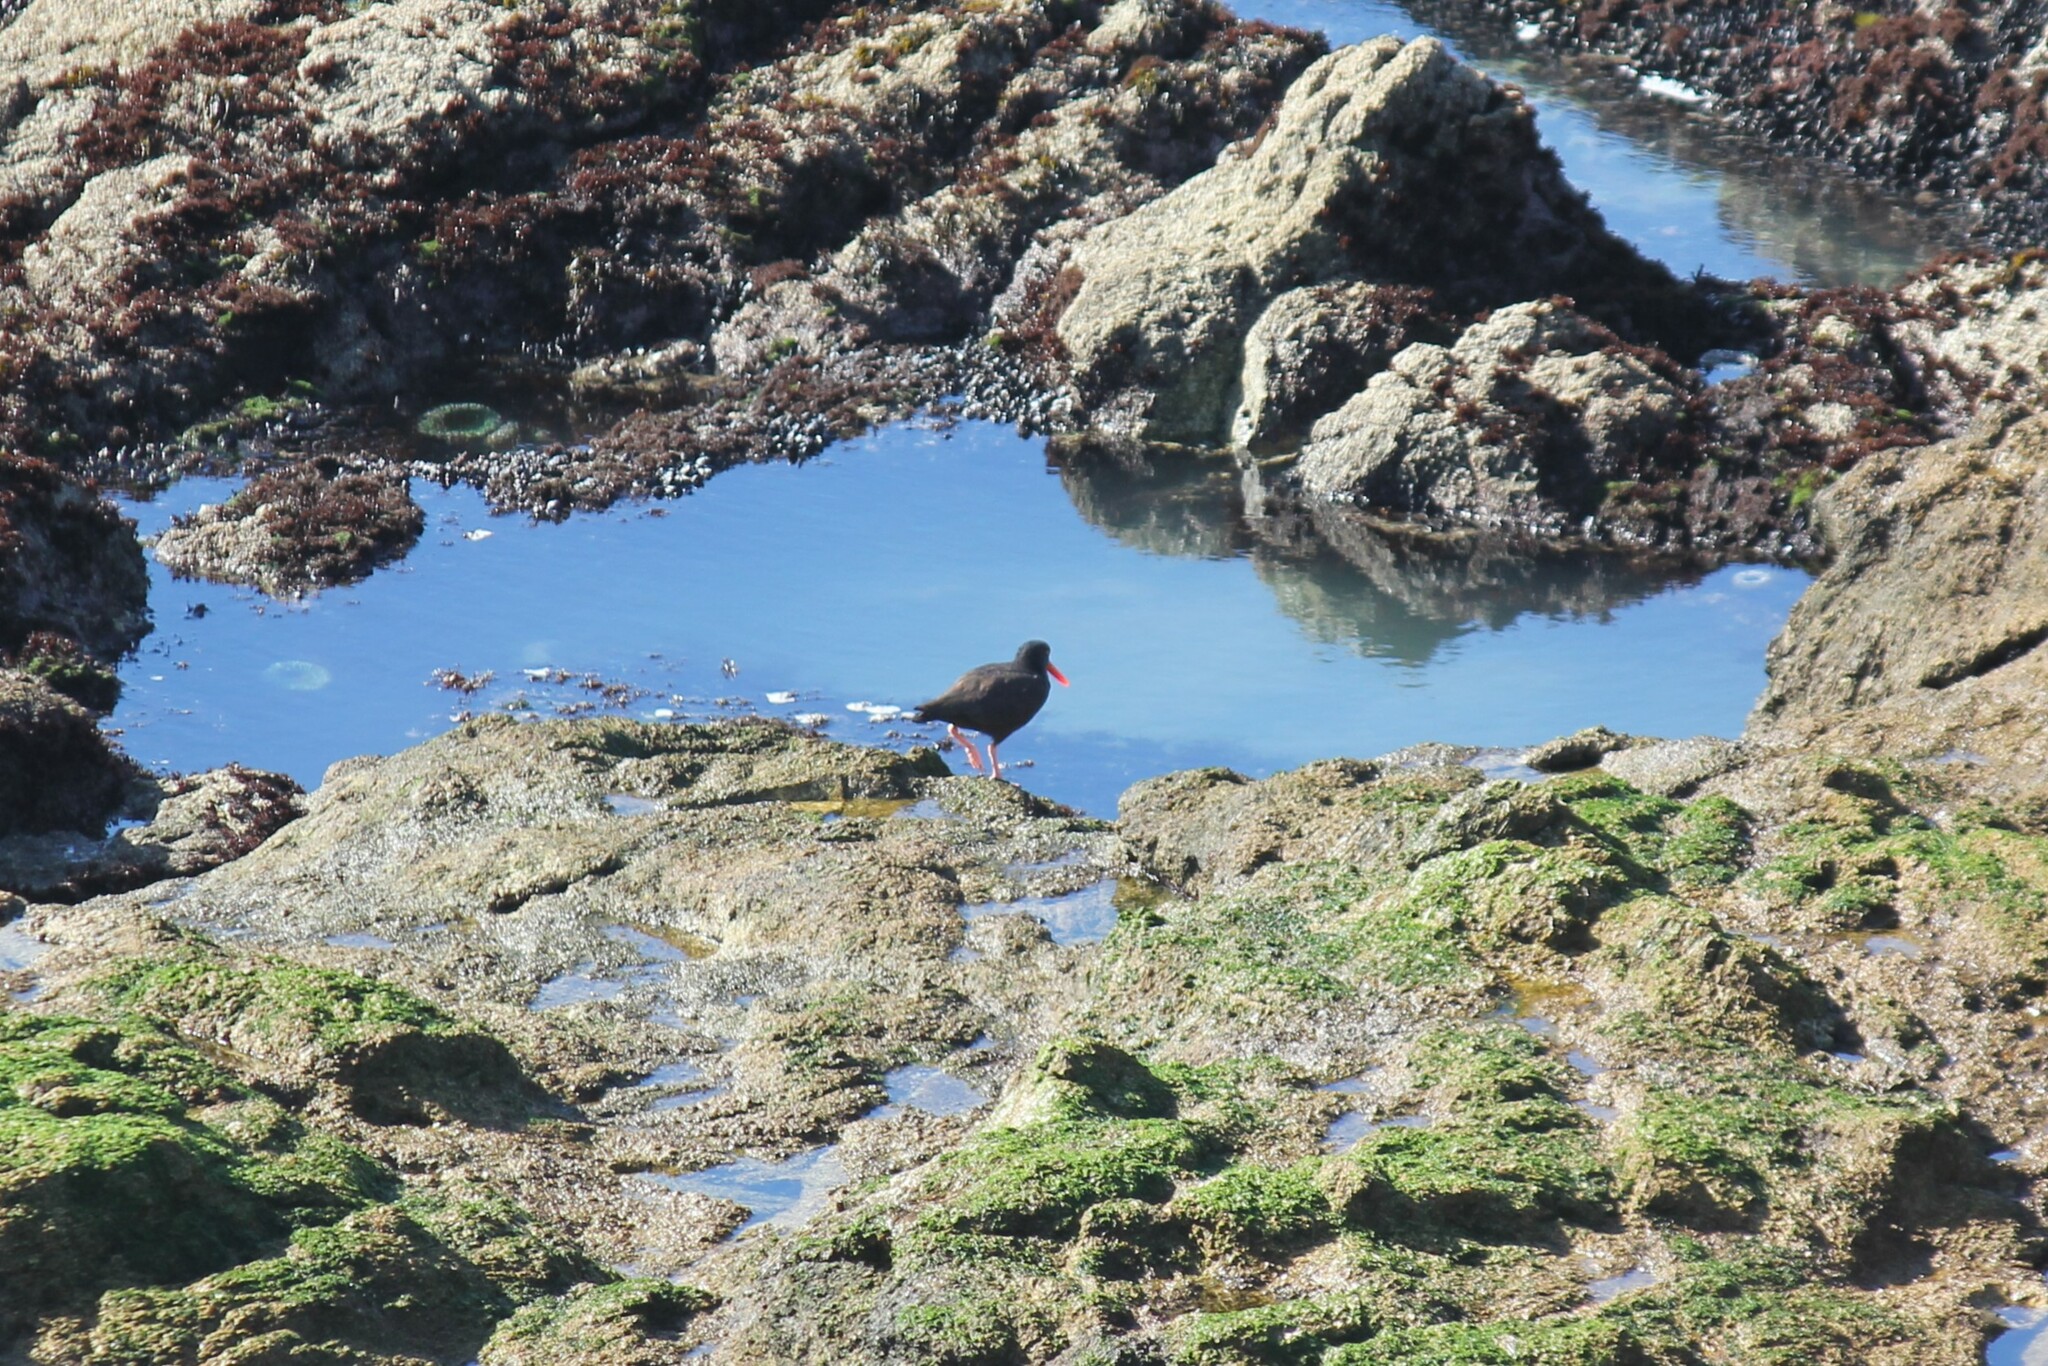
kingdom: Animalia
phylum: Chordata
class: Aves
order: Charadriiformes
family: Haematopodidae
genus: Haematopus
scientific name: Haematopus bachmani
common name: Black oystercatcher
